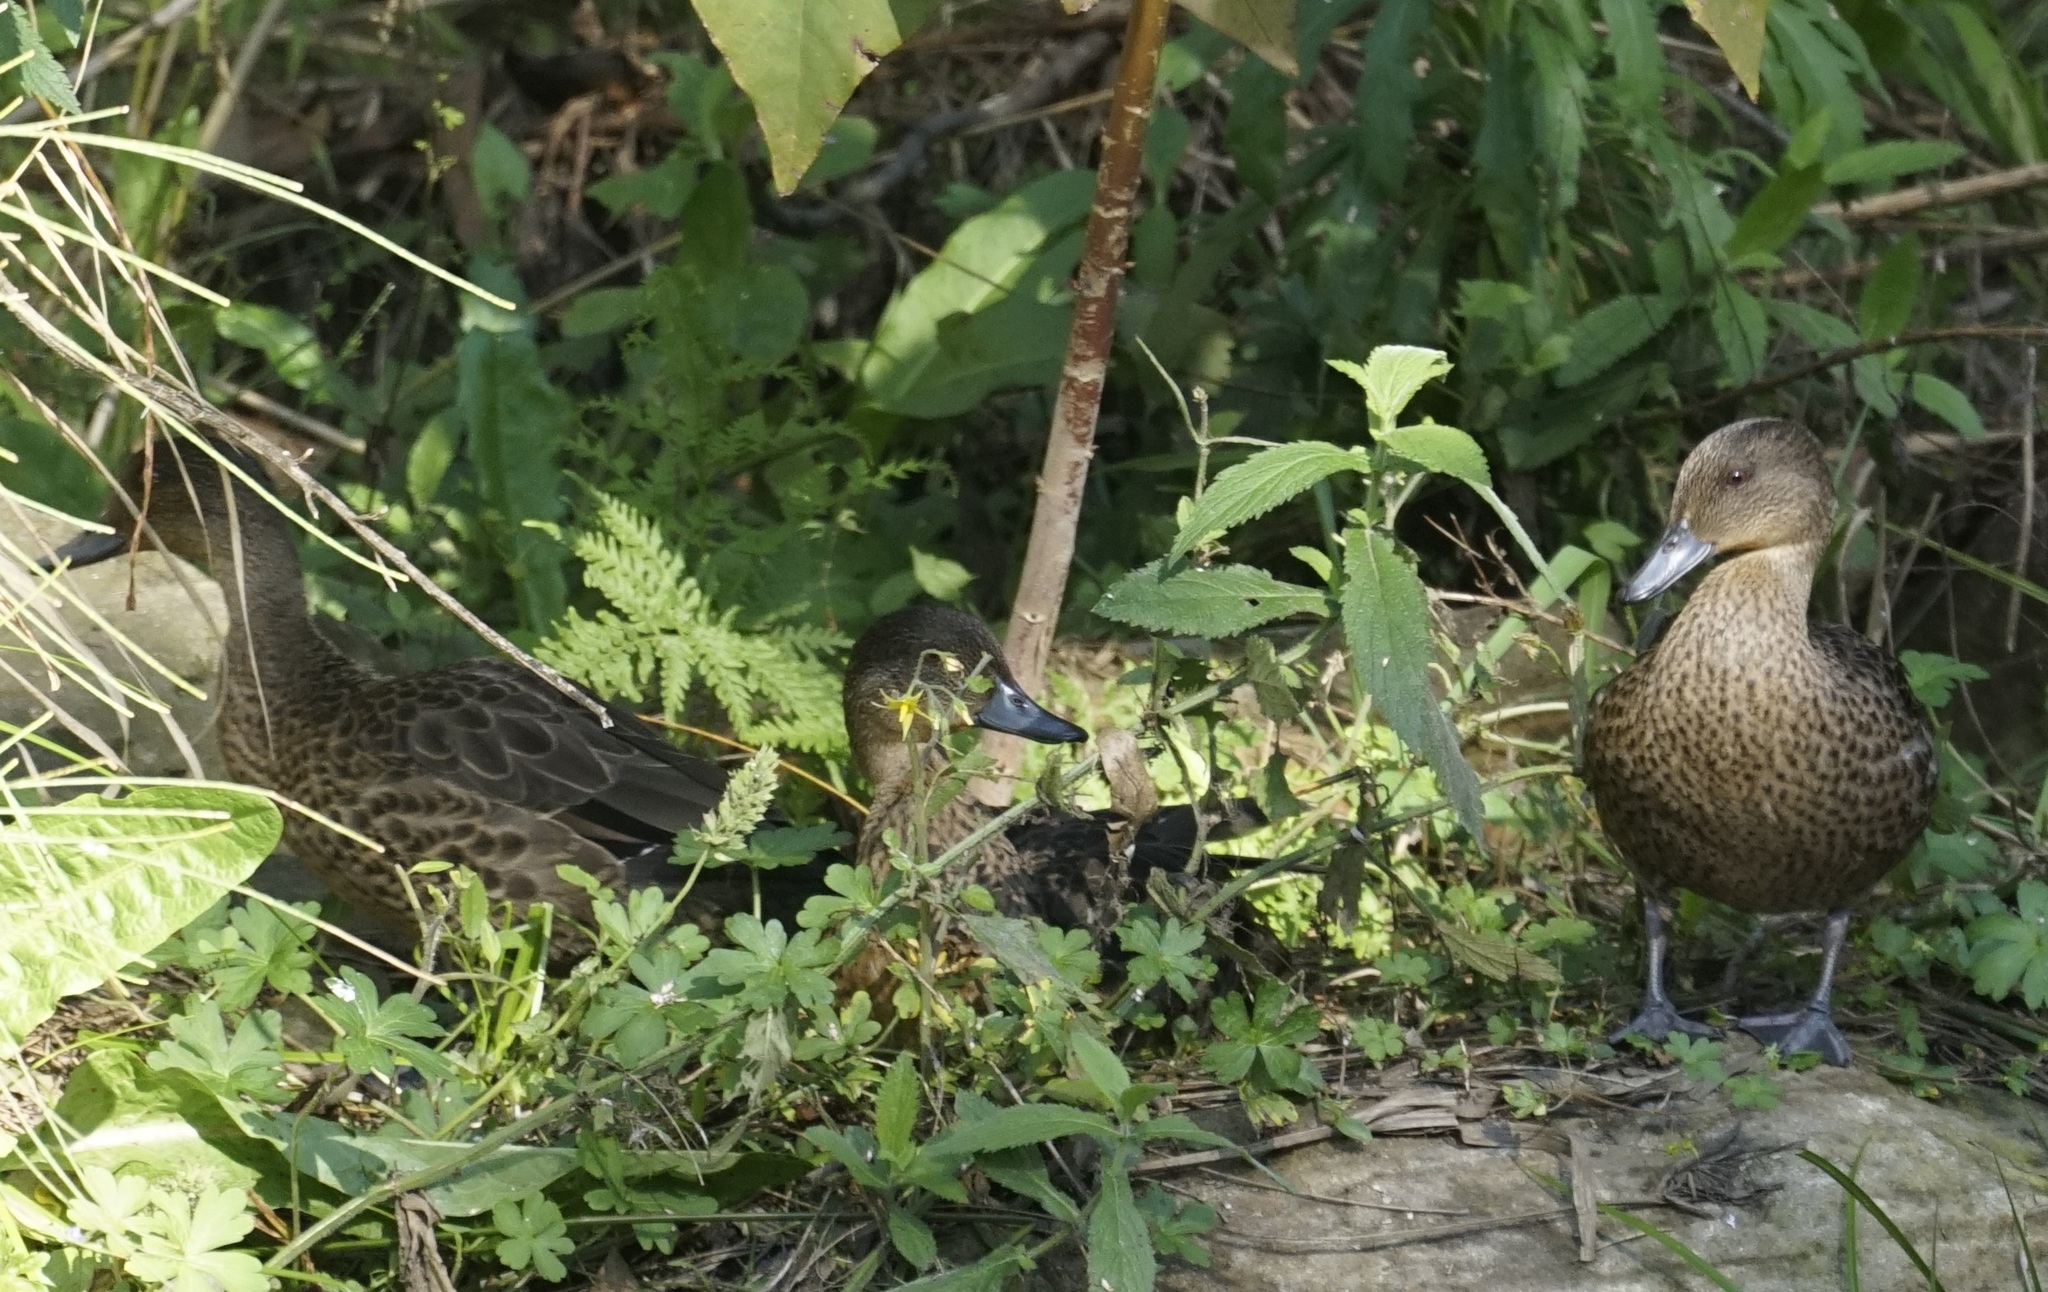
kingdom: Animalia
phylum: Chordata
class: Aves
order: Anseriformes
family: Anatidae
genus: Anas
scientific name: Anas gracilis
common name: Grey teal
